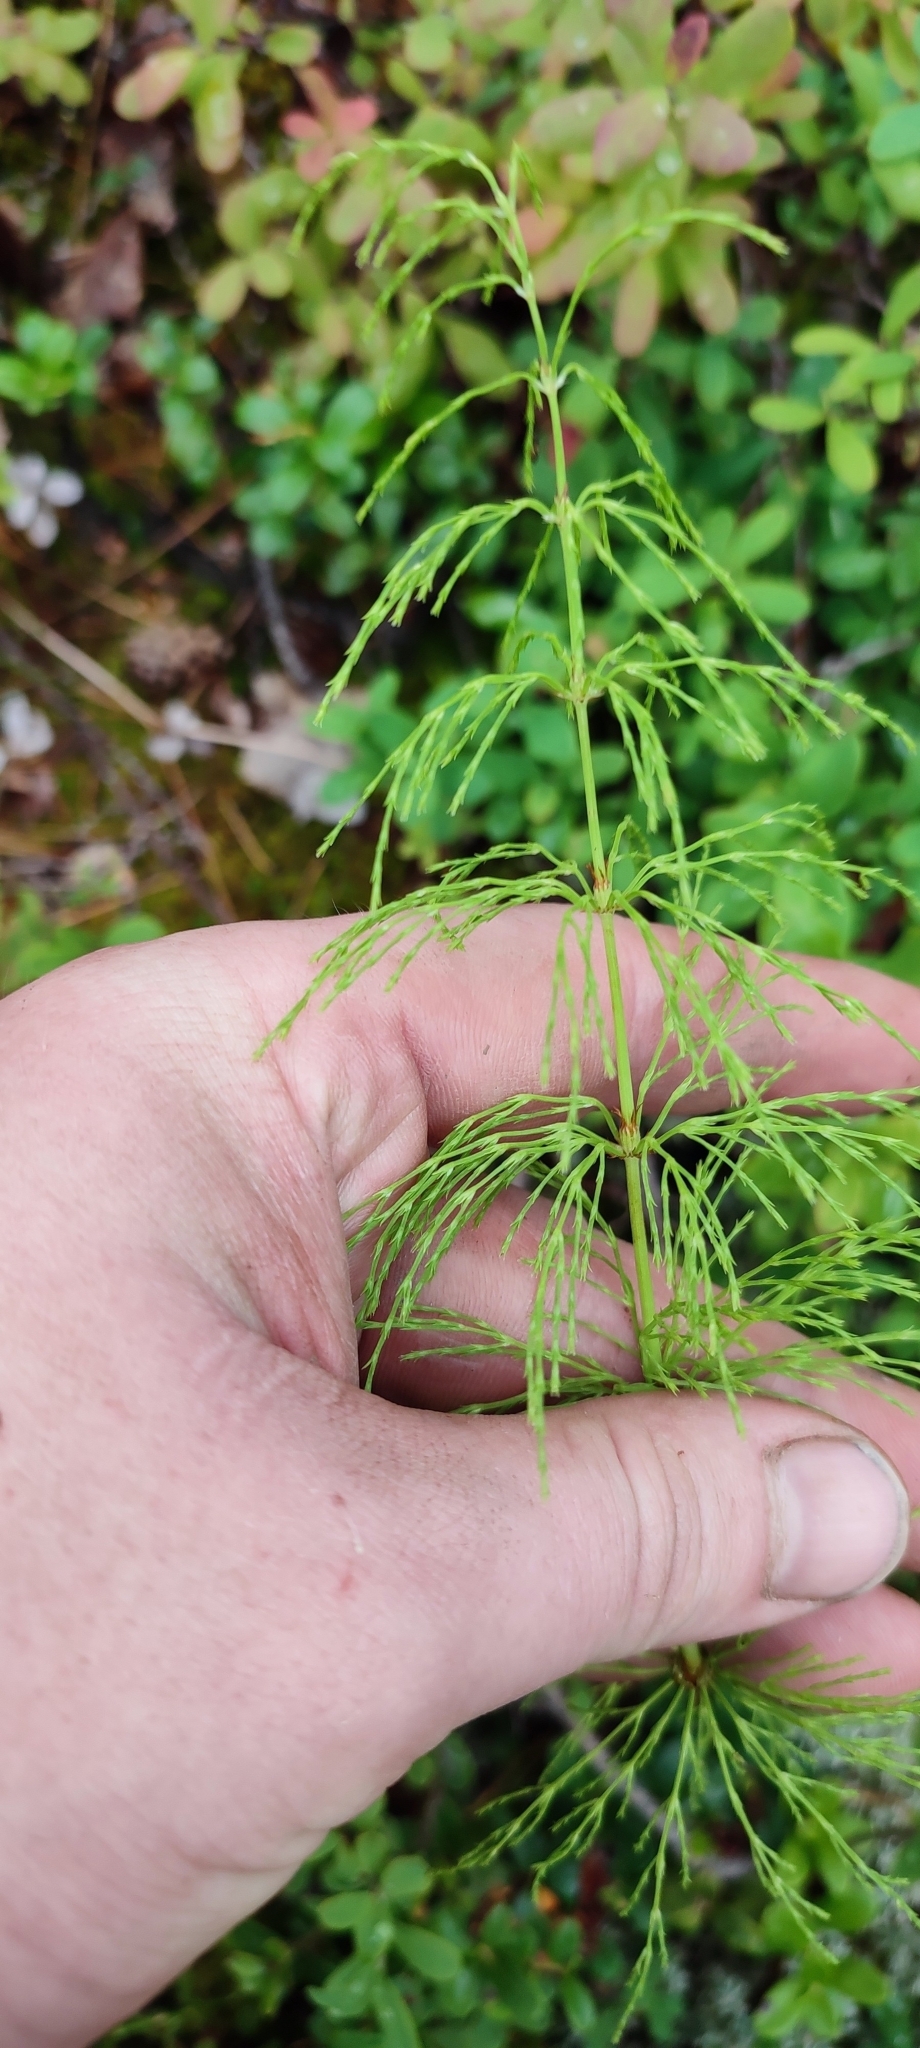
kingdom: Plantae
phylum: Tracheophyta
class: Polypodiopsida
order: Equisetales
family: Equisetaceae
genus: Equisetum
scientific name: Equisetum sylvaticum
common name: Wood horsetail
